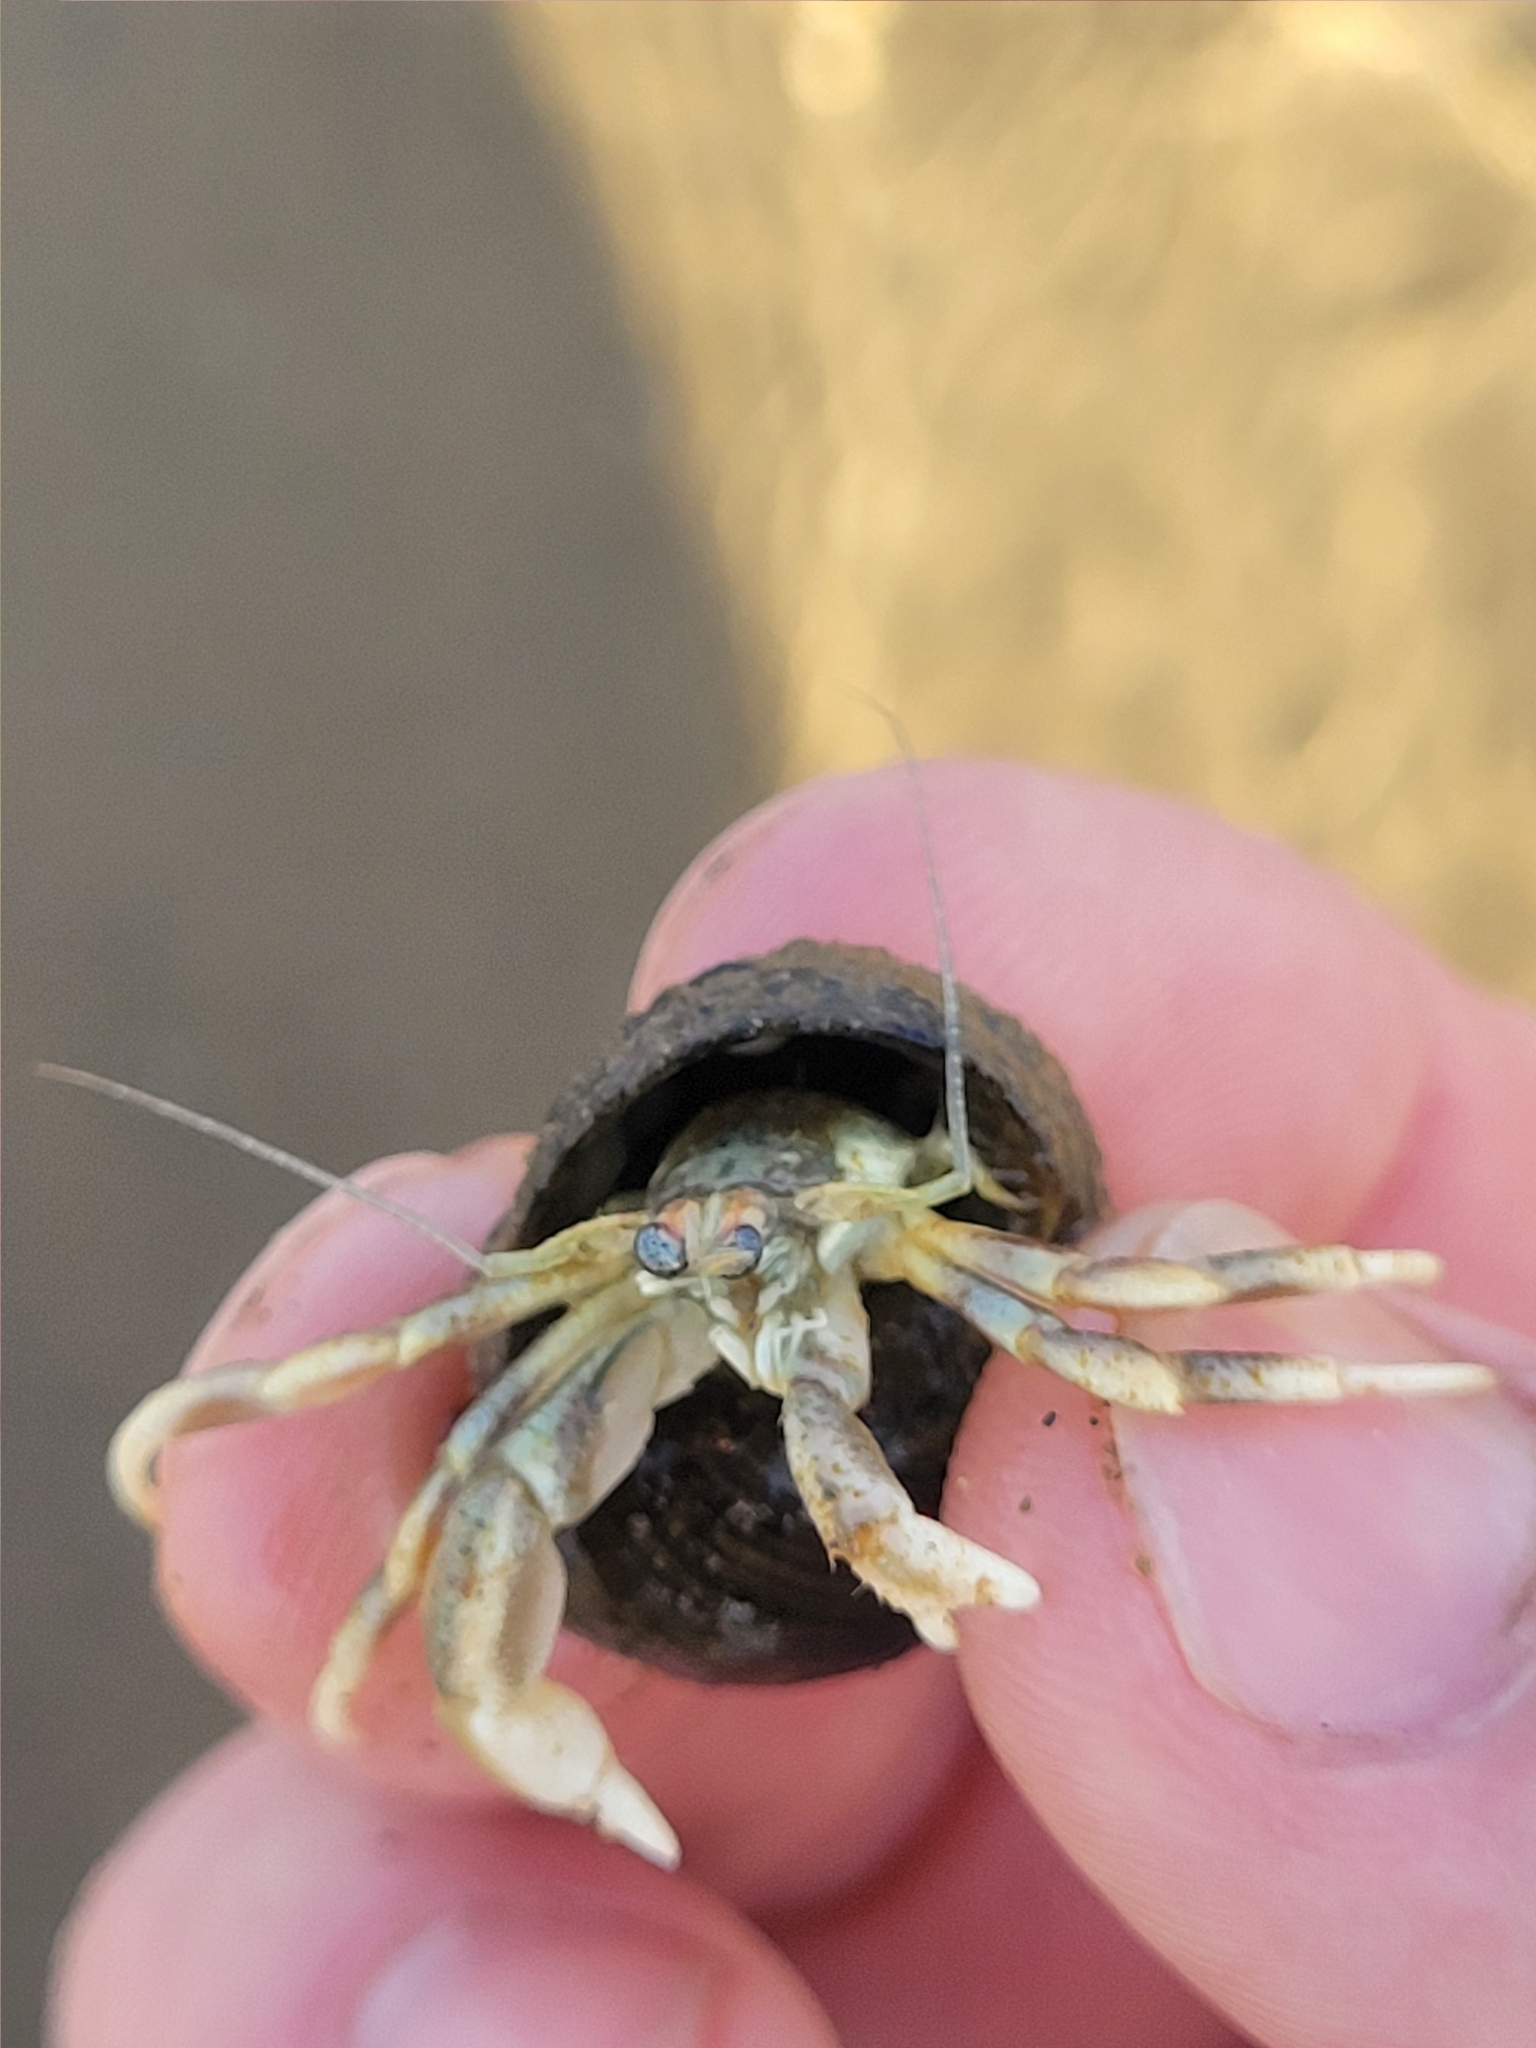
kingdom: Animalia
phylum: Arthropoda
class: Malacostraca
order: Decapoda
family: Paguridae
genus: Pagurus
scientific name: Pagurus longicarpus
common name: Long-armed hermit crab
